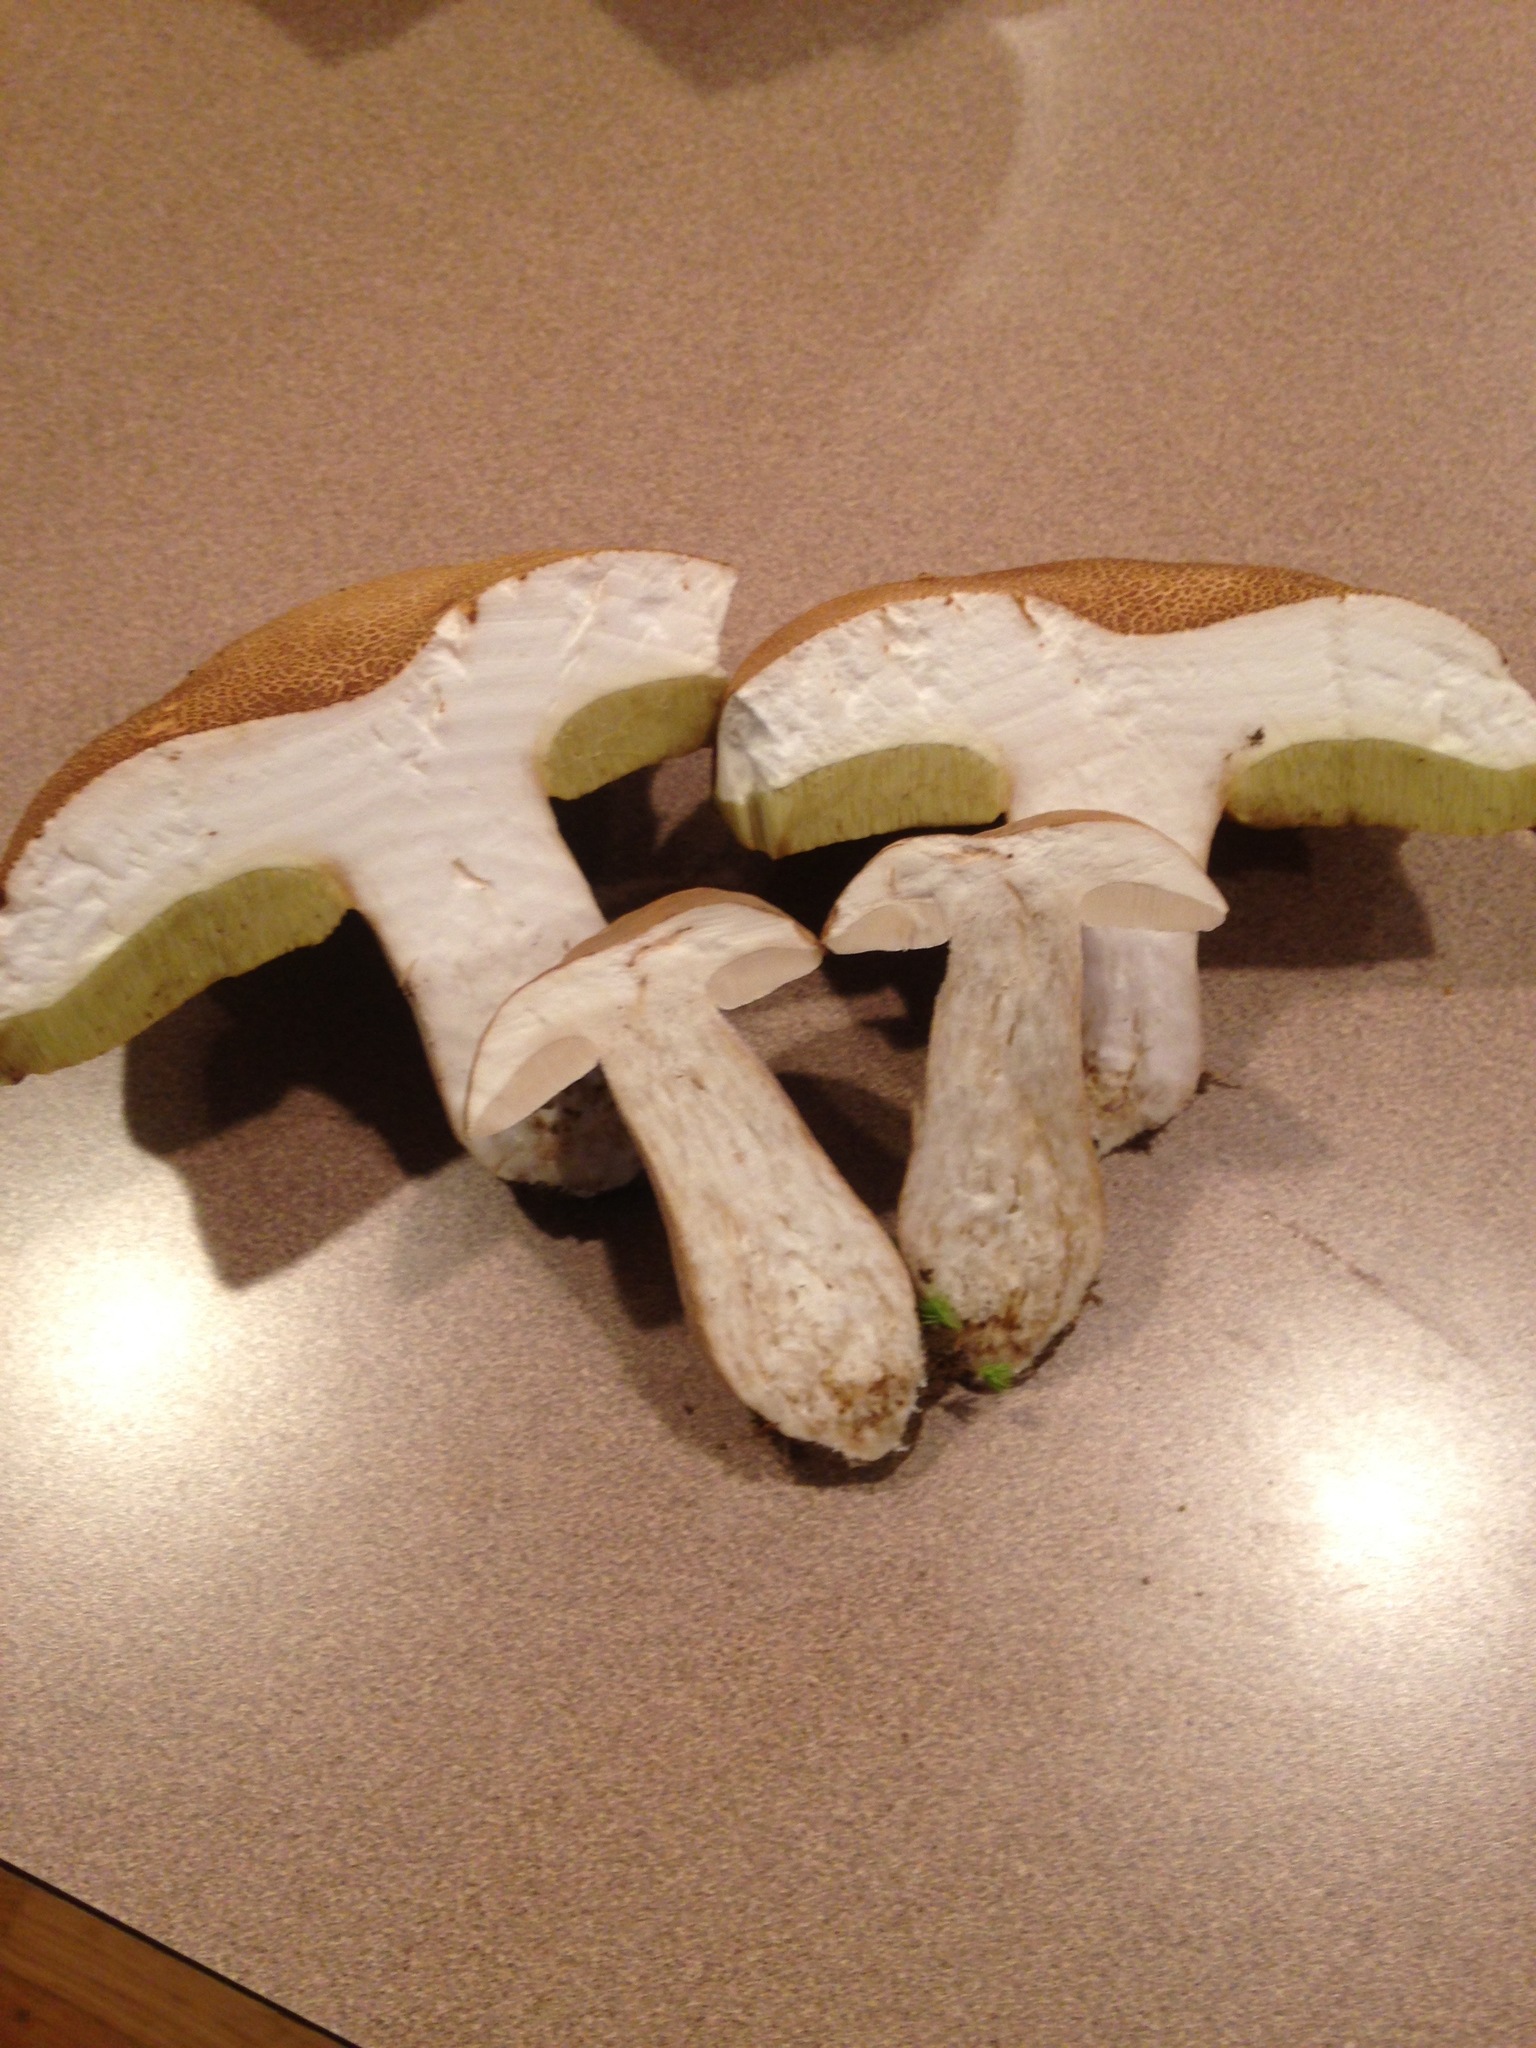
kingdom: Fungi
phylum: Basidiomycota
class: Agaricomycetes
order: Boletales
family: Boletaceae
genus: Boletus
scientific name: Boletus variipes
